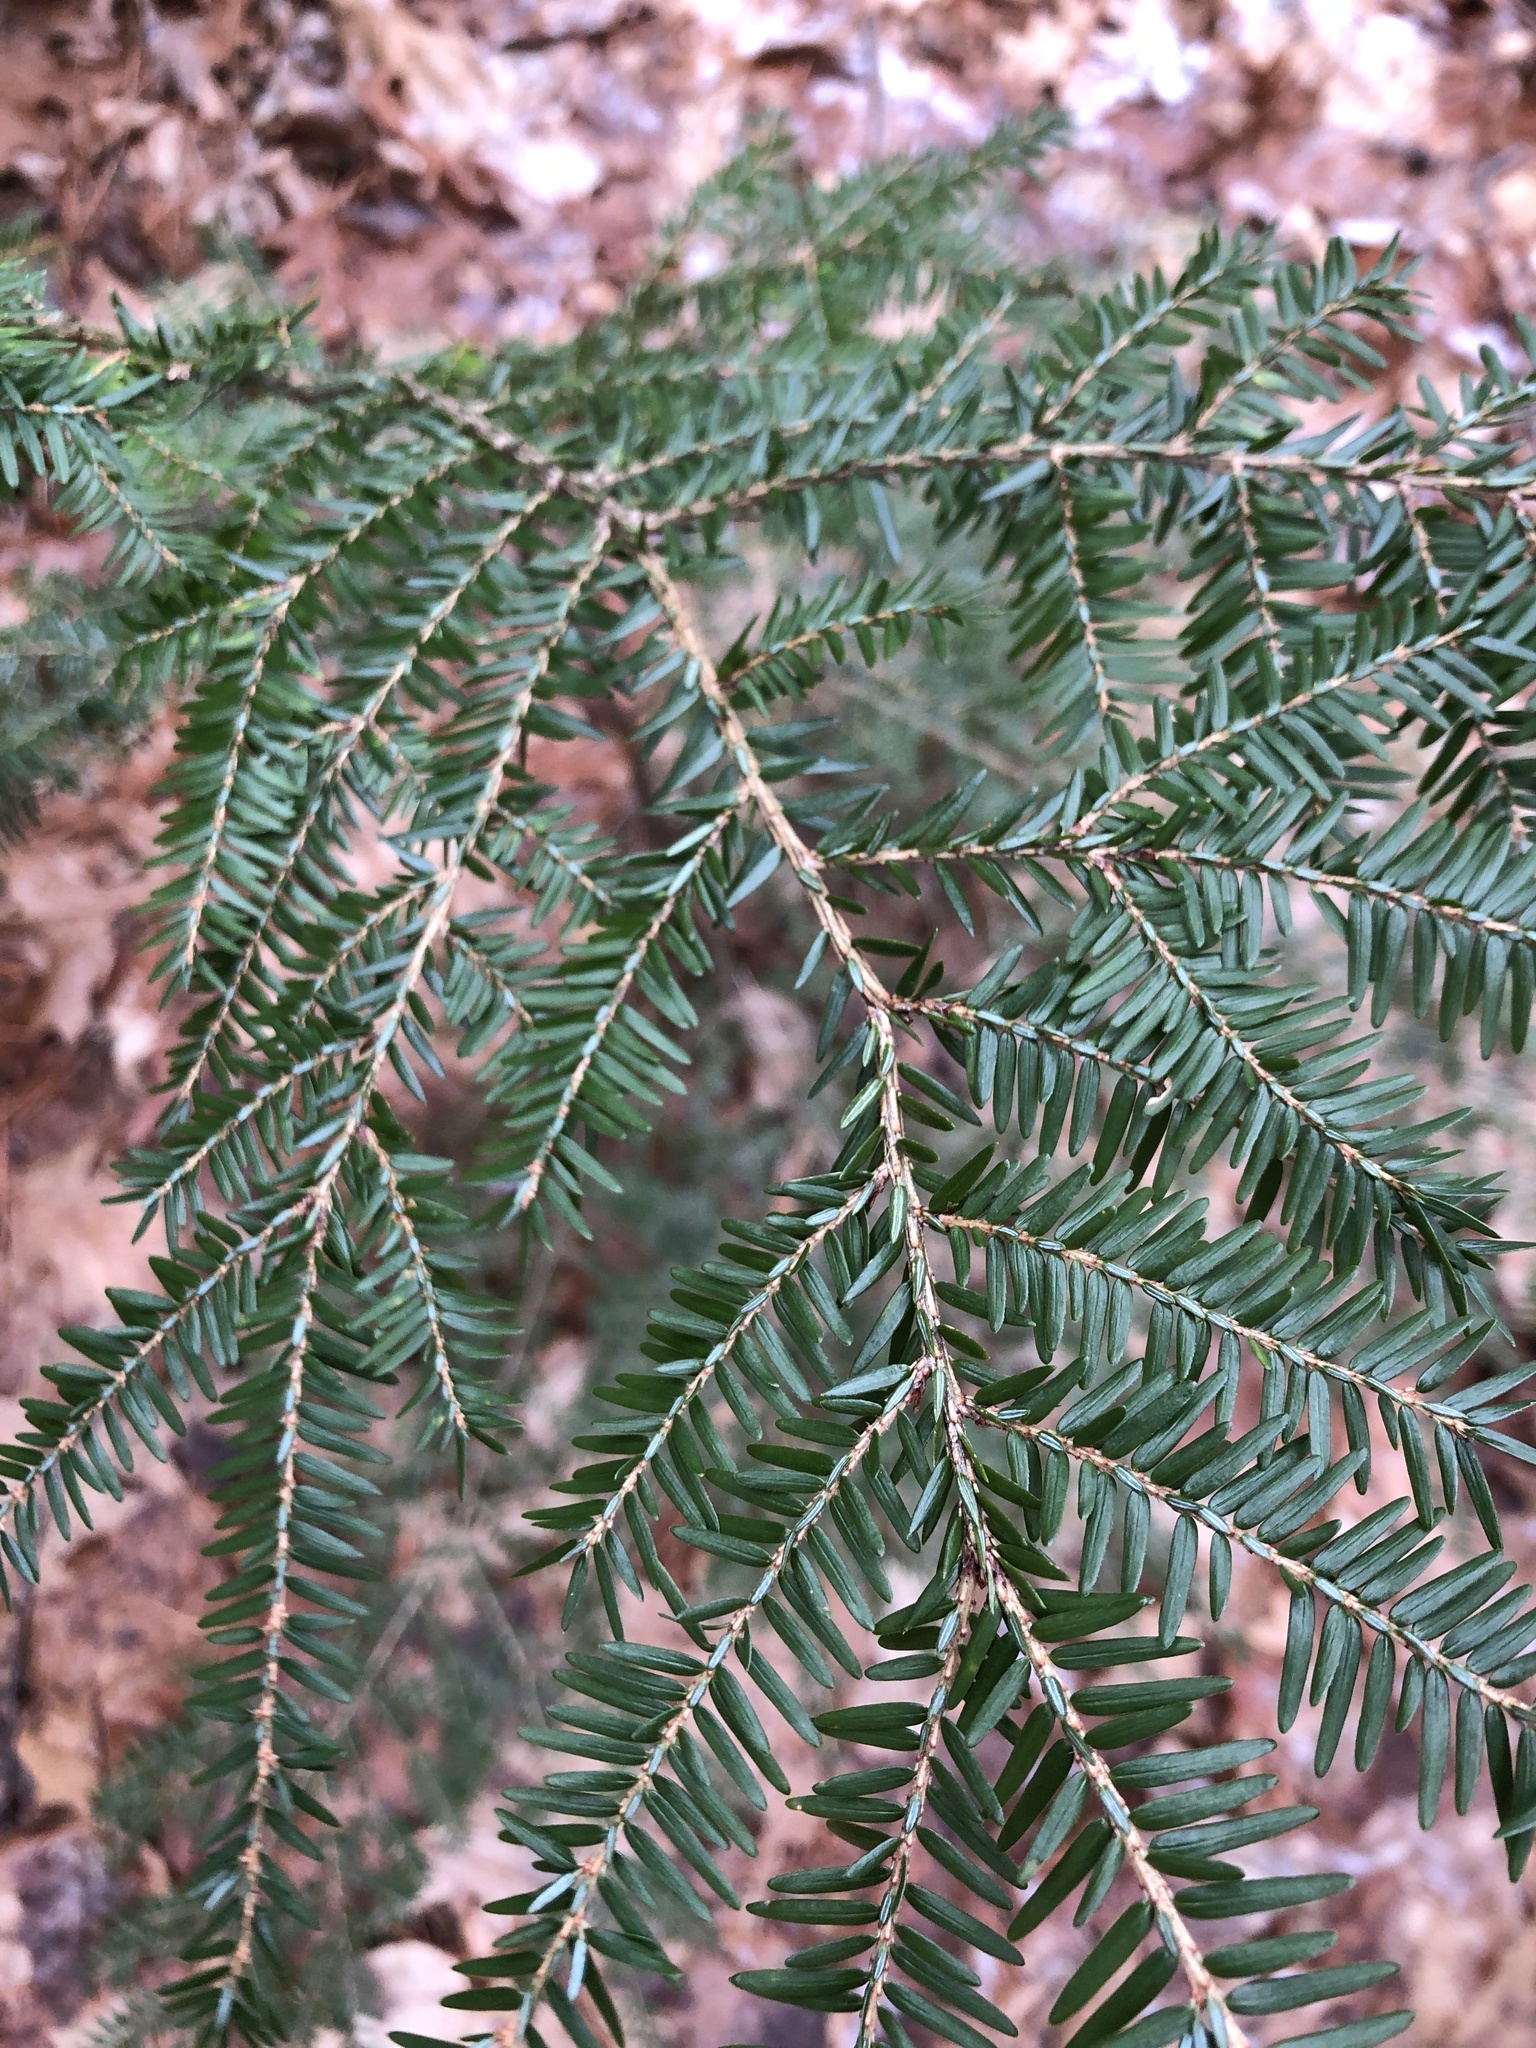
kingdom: Plantae
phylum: Tracheophyta
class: Pinopsida
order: Pinales
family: Pinaceae
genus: Tsuga
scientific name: Tsuga canadensis
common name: Eastern hemlock
